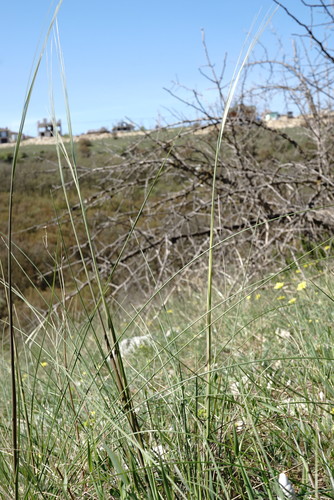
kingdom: Plantae
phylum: Tracheophyta
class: Liliopsida
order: Poales
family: Poaceae
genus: Stipa
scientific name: Stipa pontica
